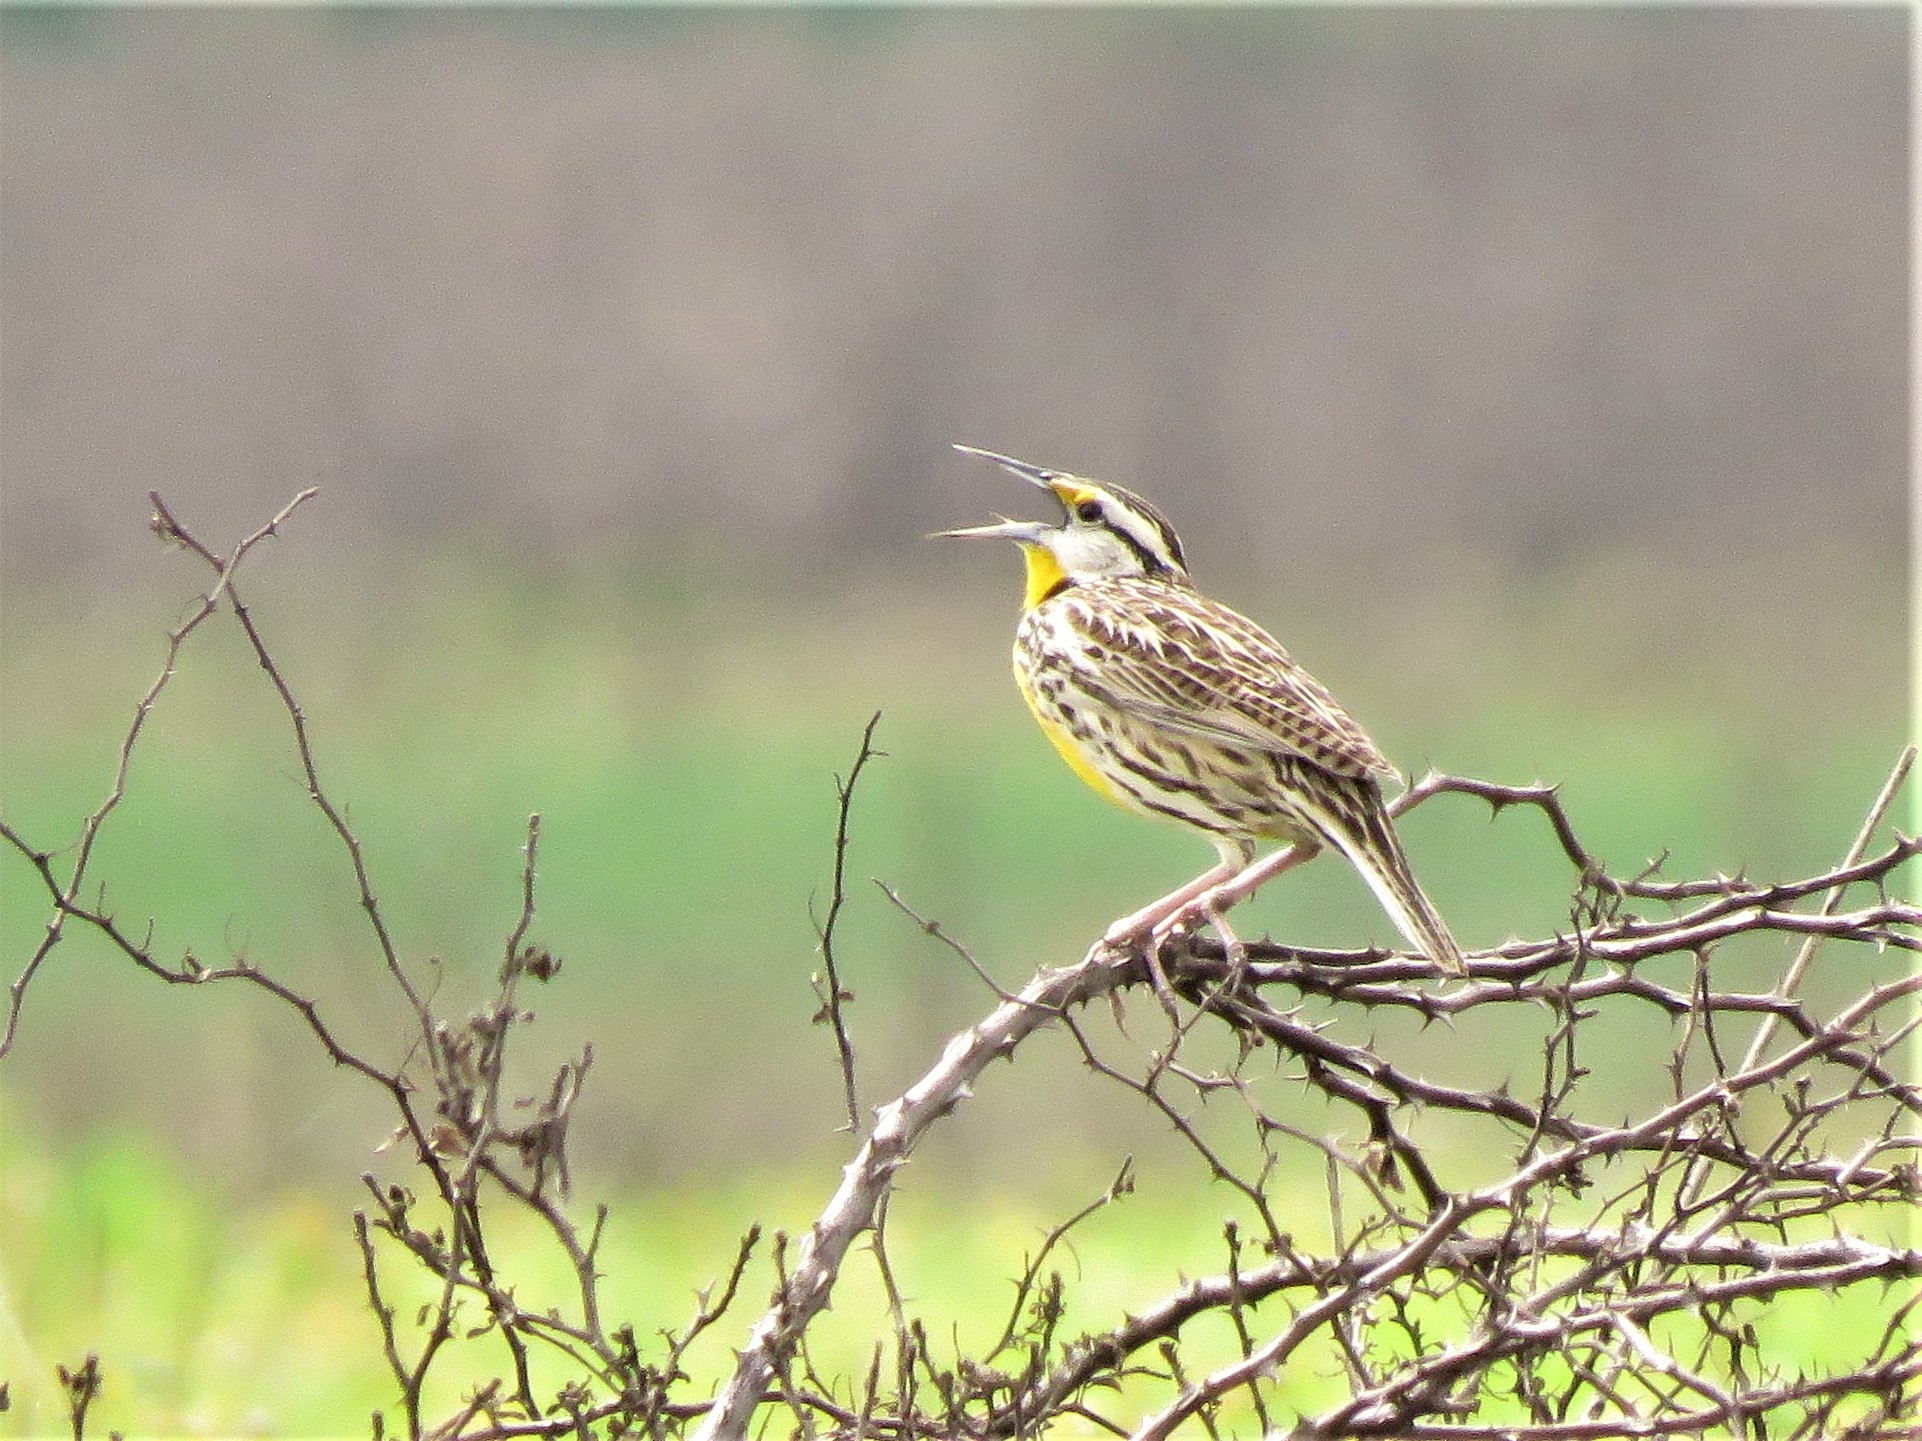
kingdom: Animalia
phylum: Chordata
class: Aves
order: Passeriformes
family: Icteridae
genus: Sturnella
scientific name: Sturnella magna
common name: Eastern meadowlark
